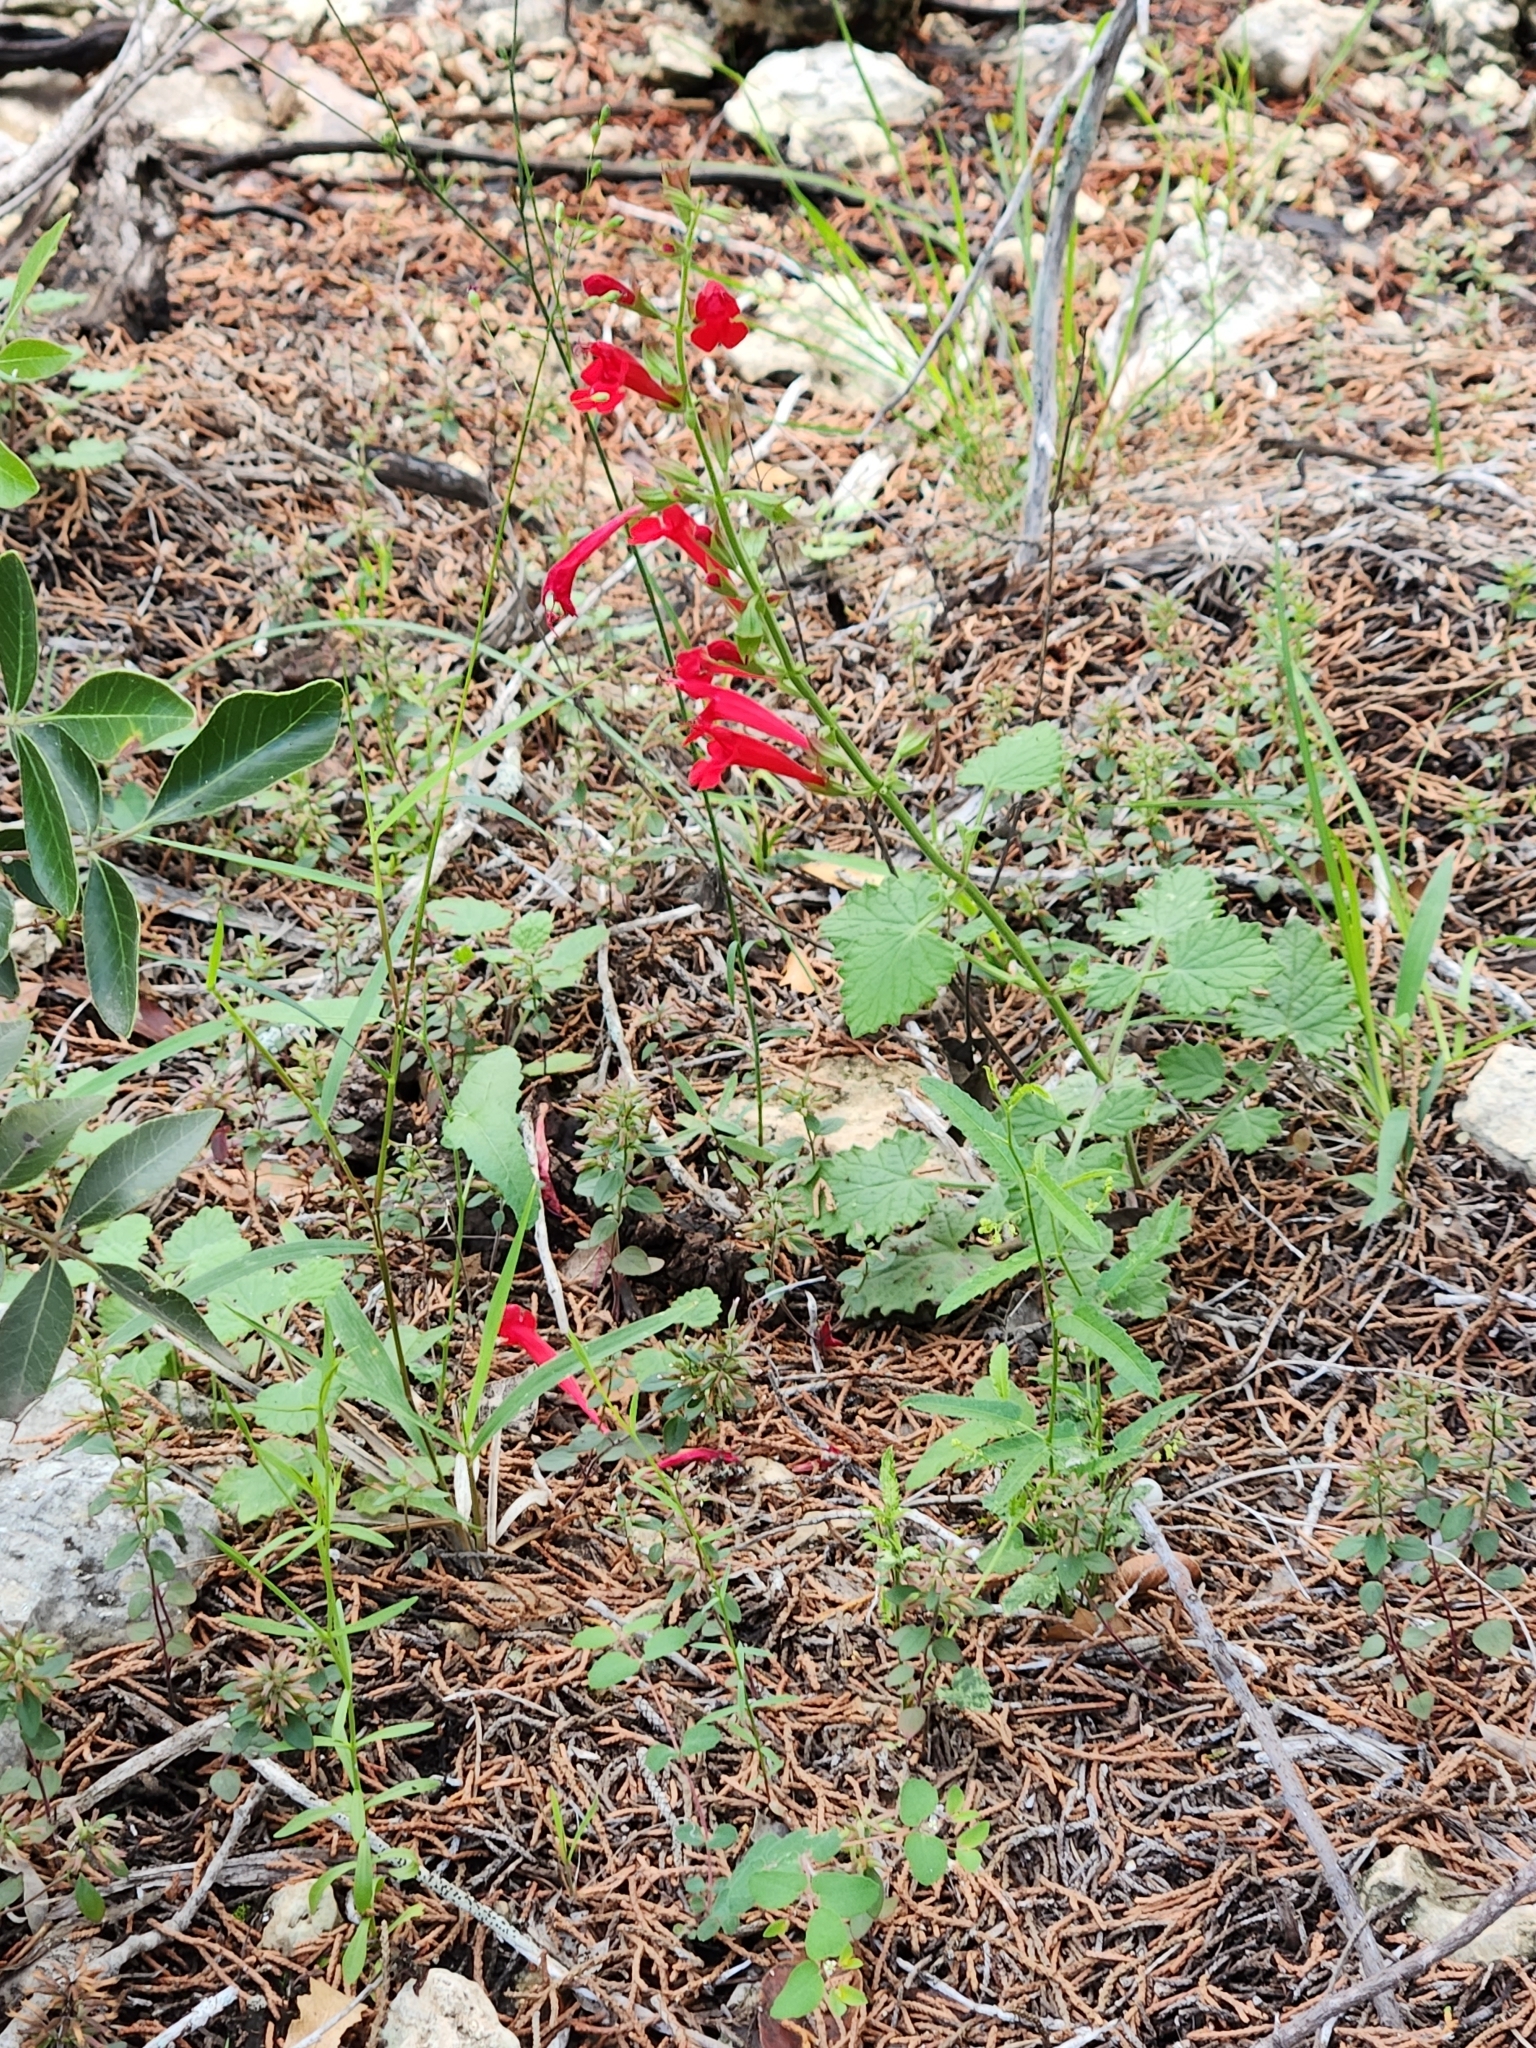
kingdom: Plantae
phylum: Tracheophyta
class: Magnoliopsida
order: Lamiales
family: Lamiaceae
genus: Salvia
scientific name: Salvia roemeriana
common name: Cedar sage
